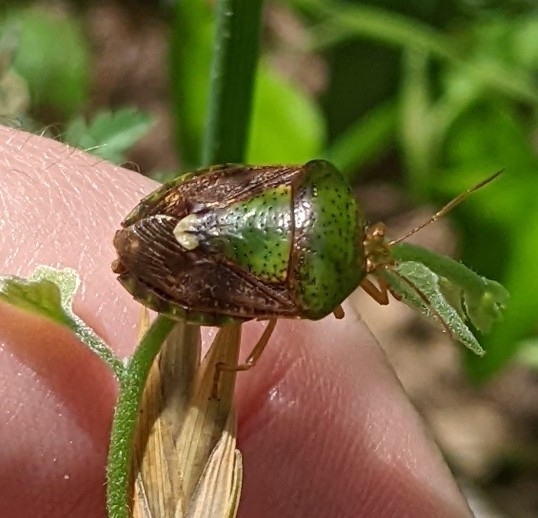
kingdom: Animalia
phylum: Arthropoda
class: Insecta
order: Hemiptera
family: Pentatomidae
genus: Edessa
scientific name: Edessa bifida
